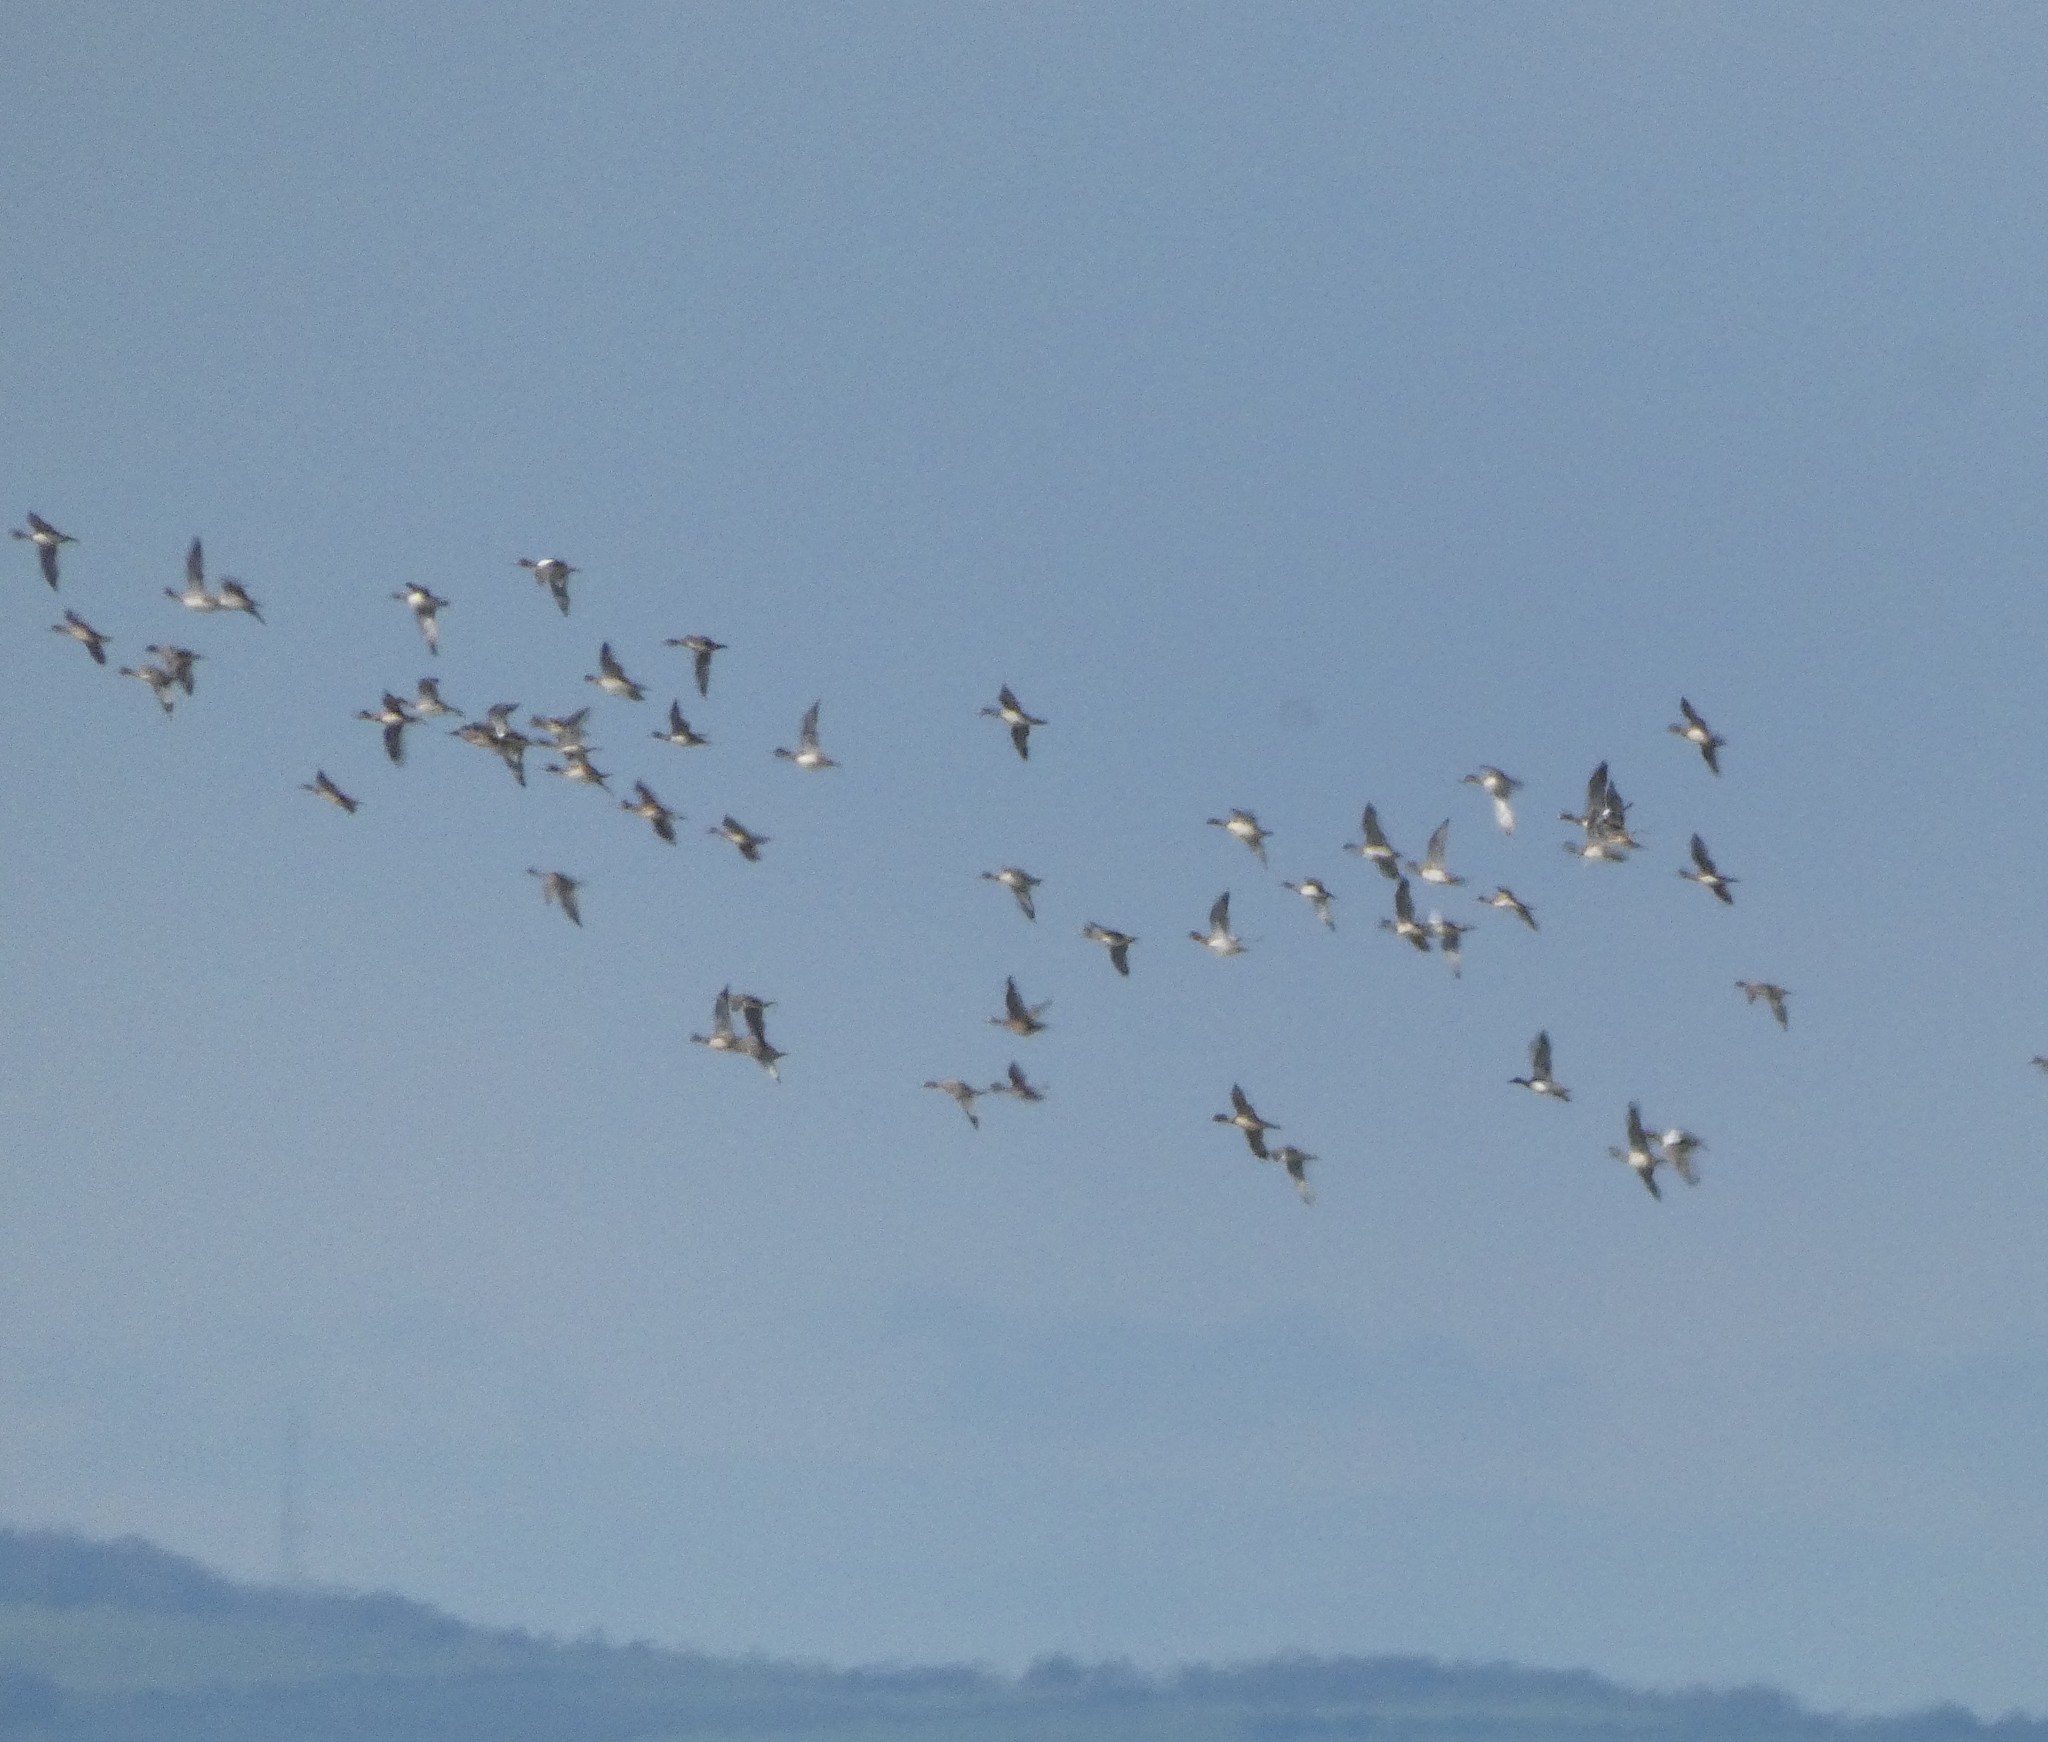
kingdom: Animalia
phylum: Chordata
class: Aves
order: Anseriformes
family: Anatidae
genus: Mareca
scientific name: Mareca penelope
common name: Eurasian wigeon
